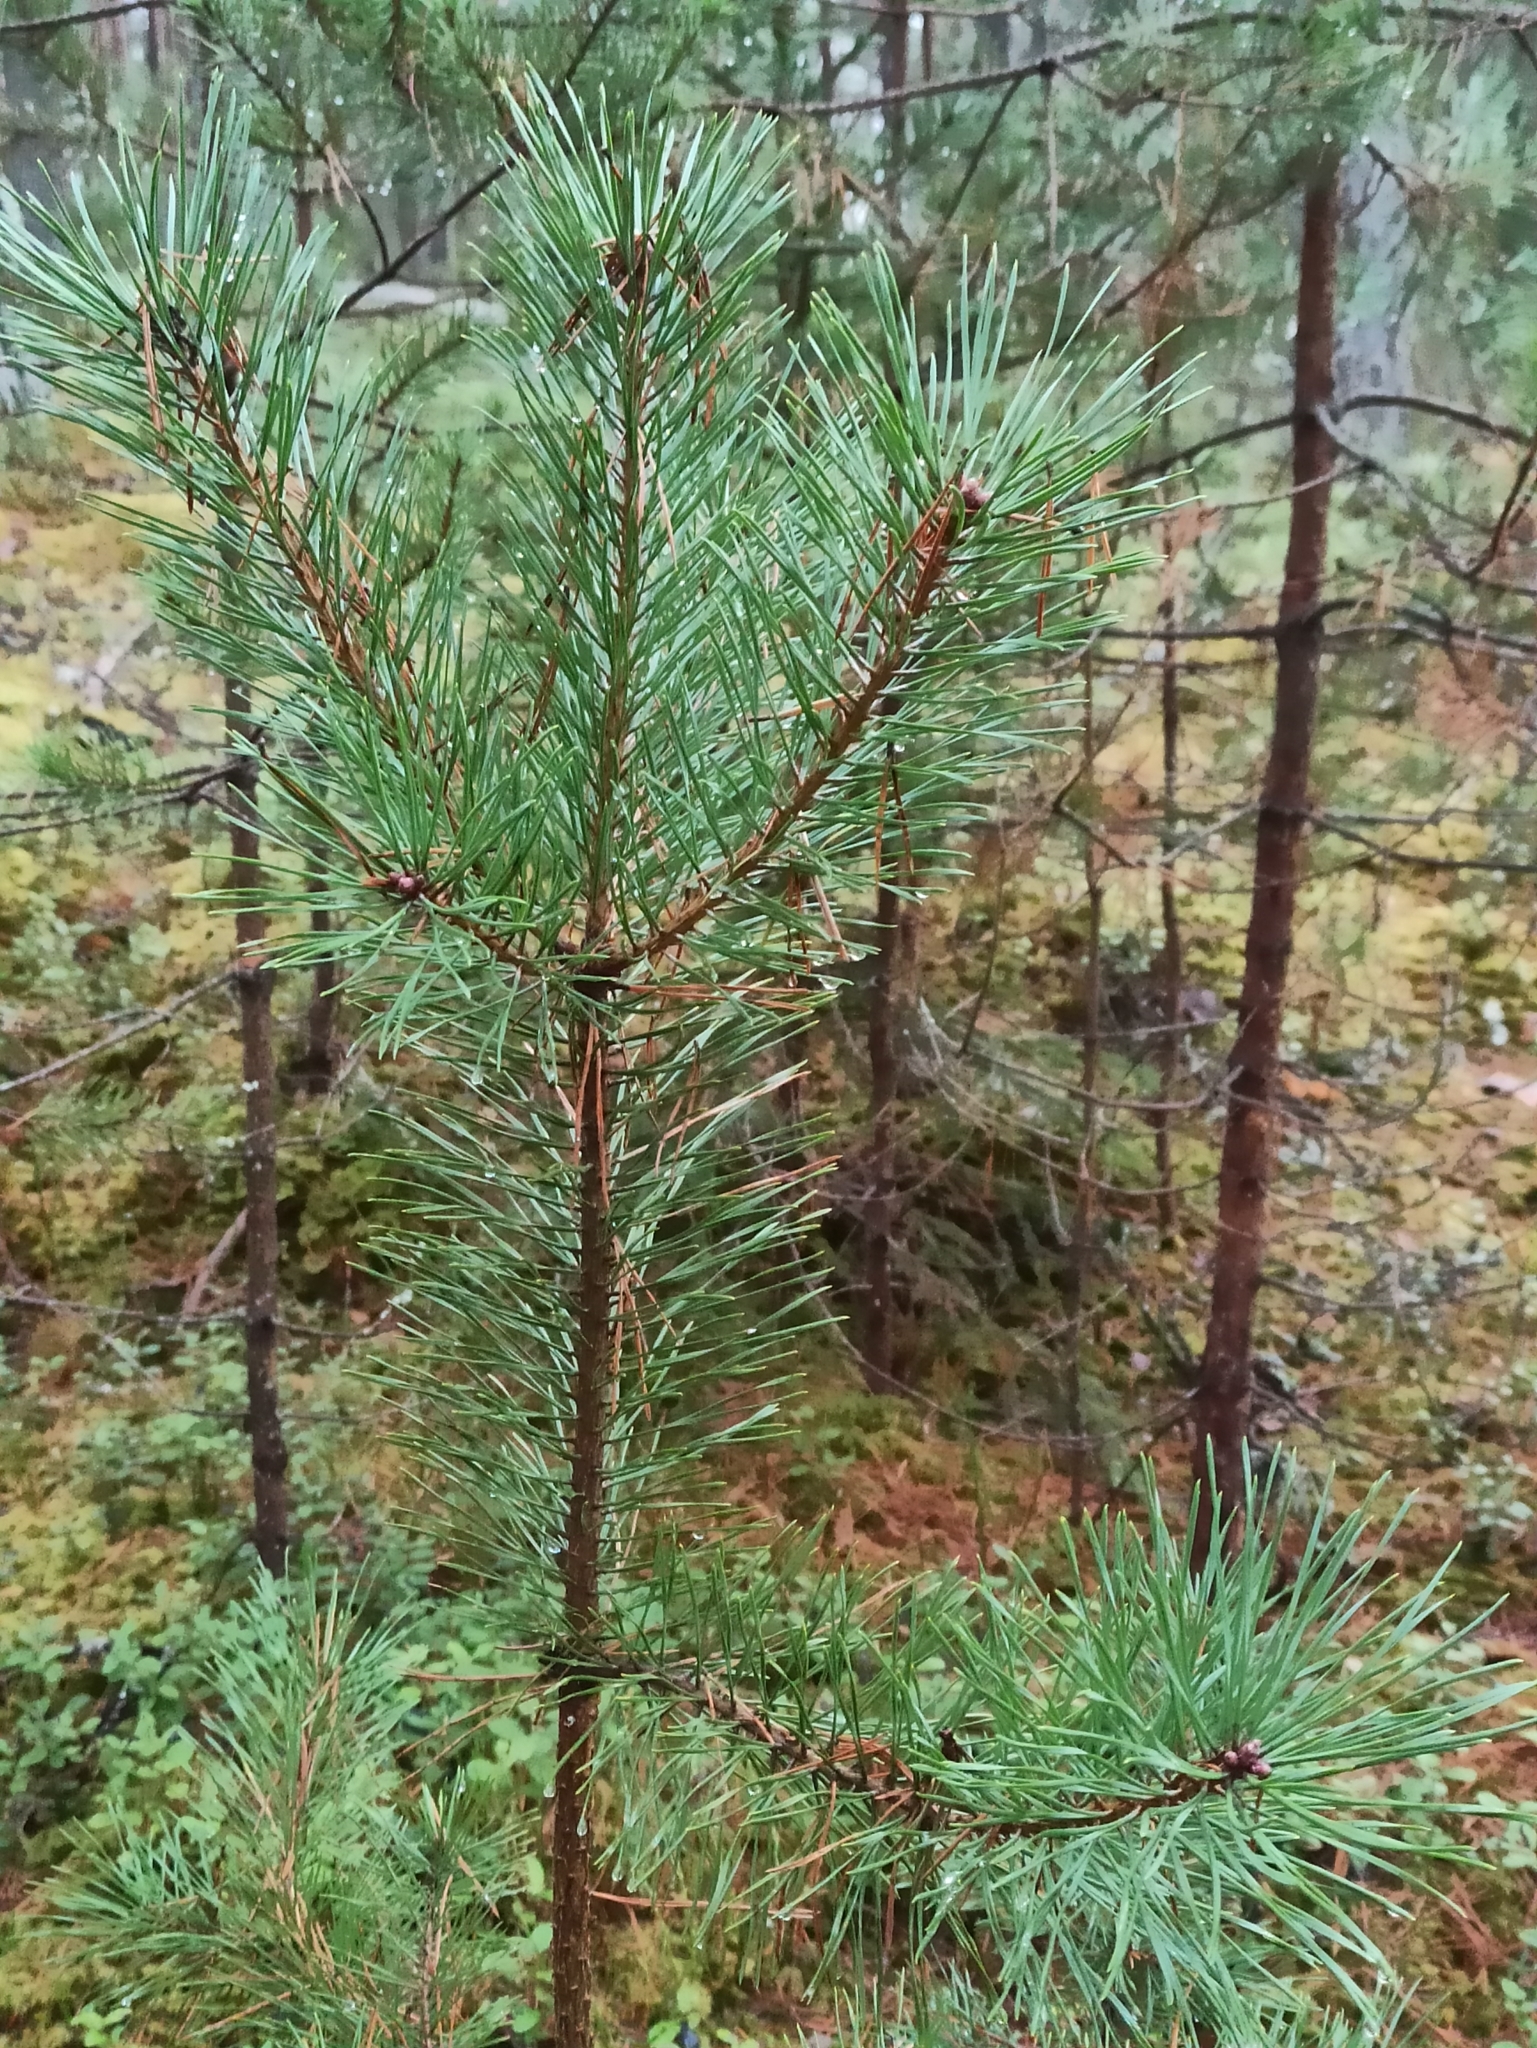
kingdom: Plantae
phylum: Tracheophyta
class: Pinopsida
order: Pinales
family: Pinaceae
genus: Pinus
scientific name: Pinus sylvestris
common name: Scots pine
